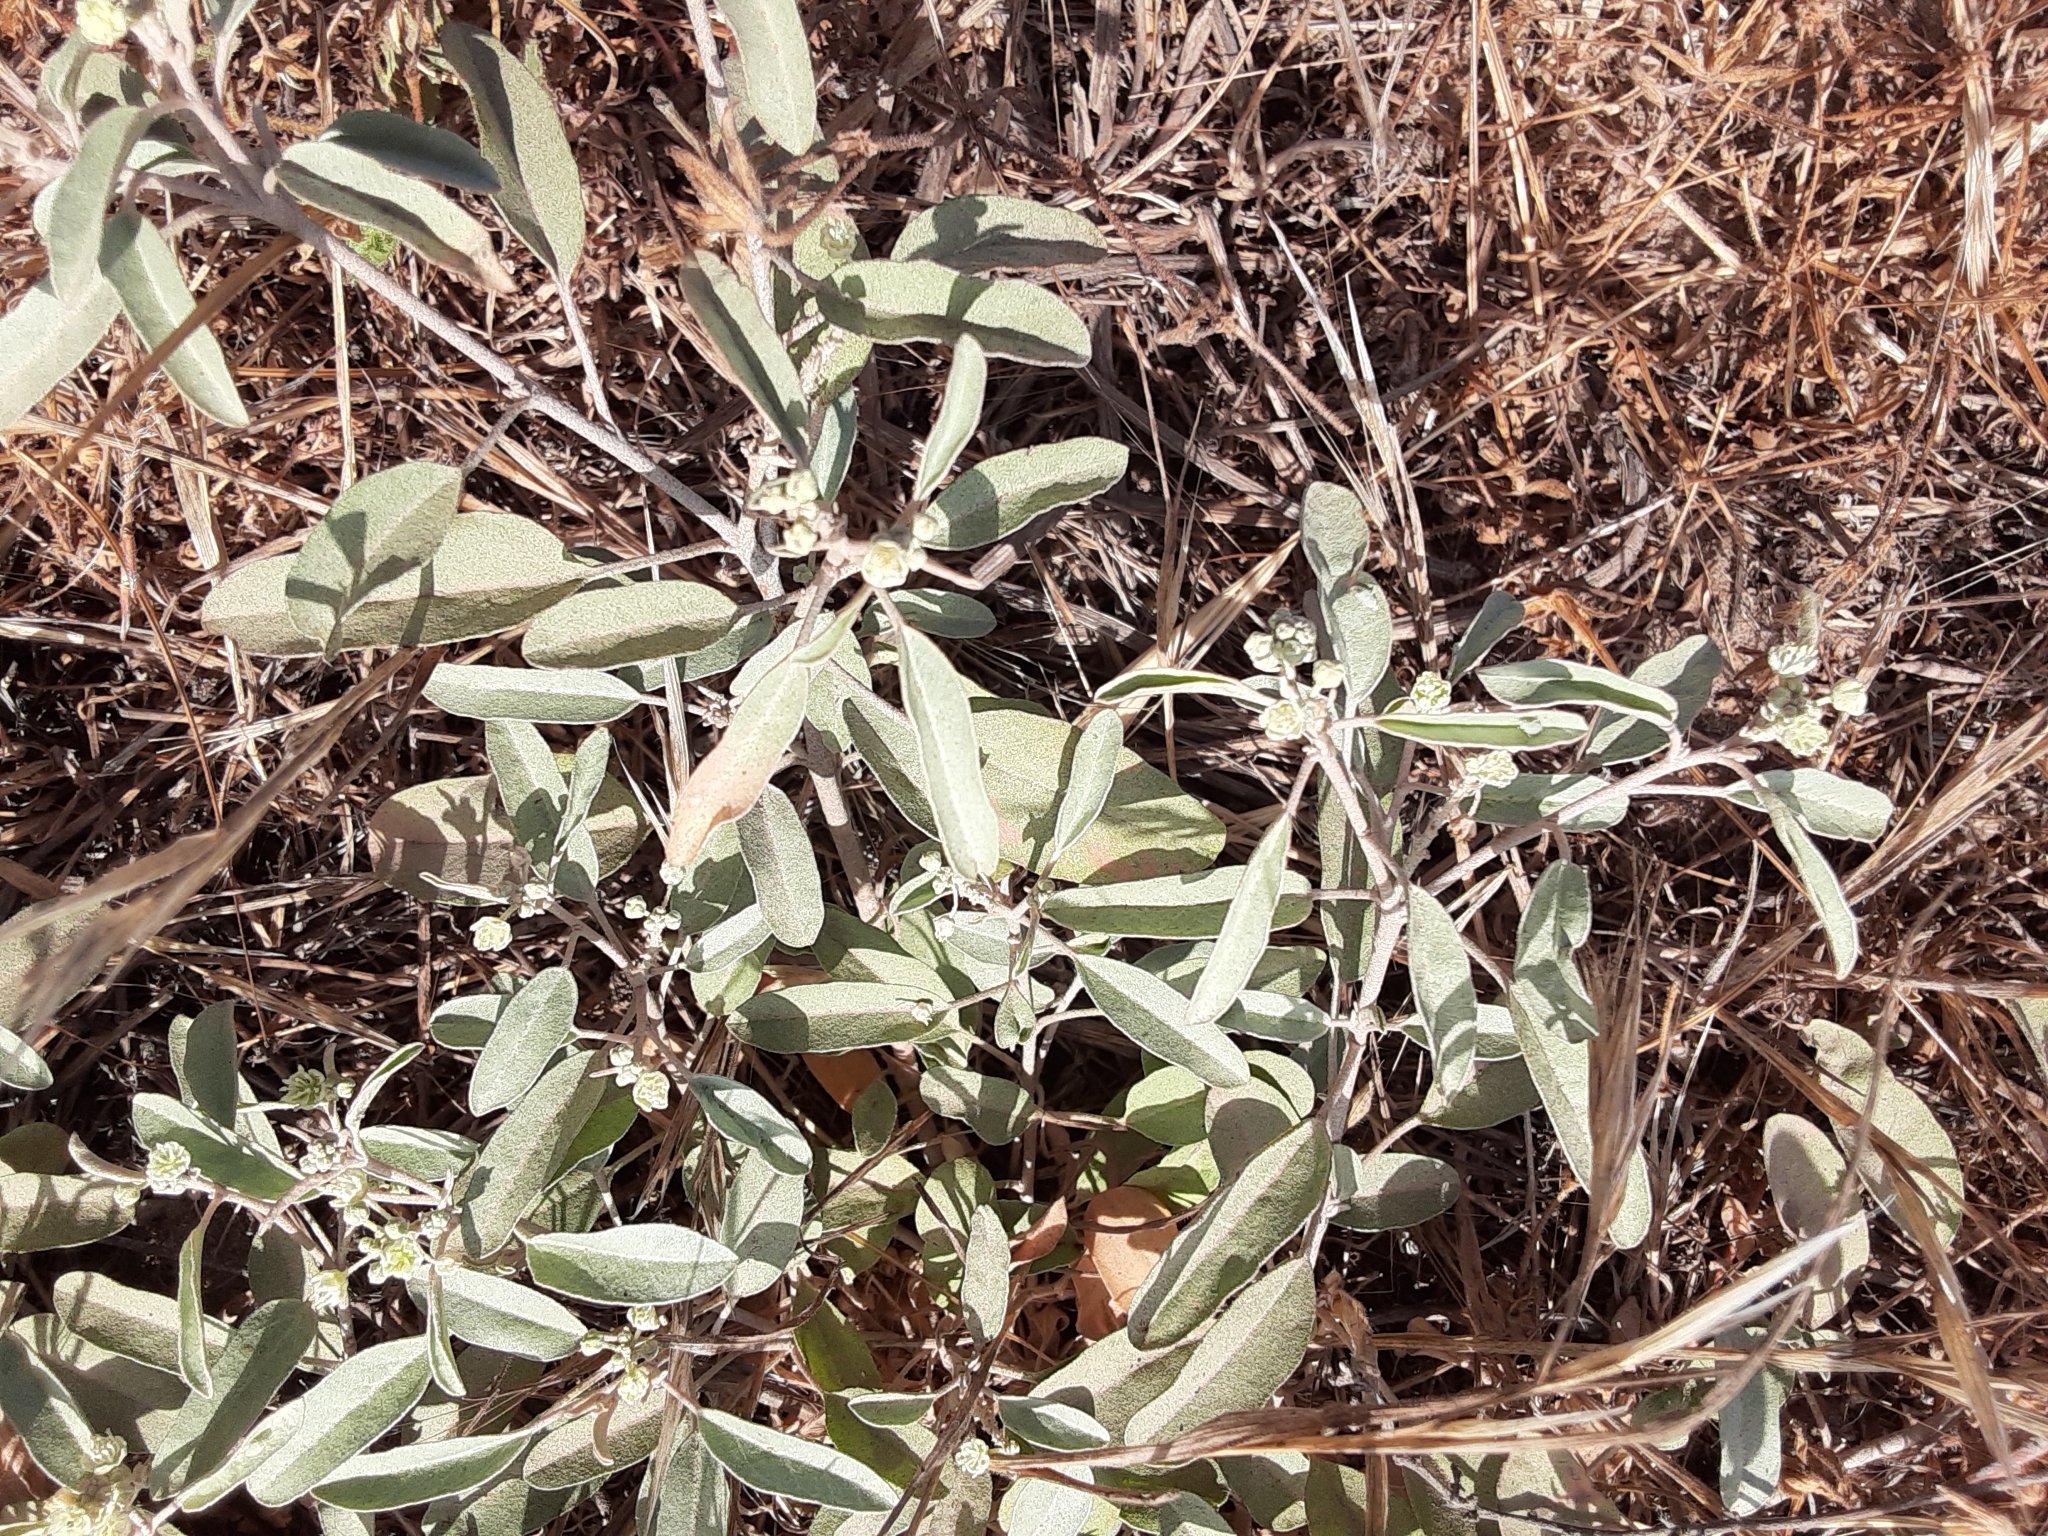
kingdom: Plantae
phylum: Tracheophyta
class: Magnoliopsida
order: Malpighiales
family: Euphorbiaceae
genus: Croton
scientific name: Croton californicus
